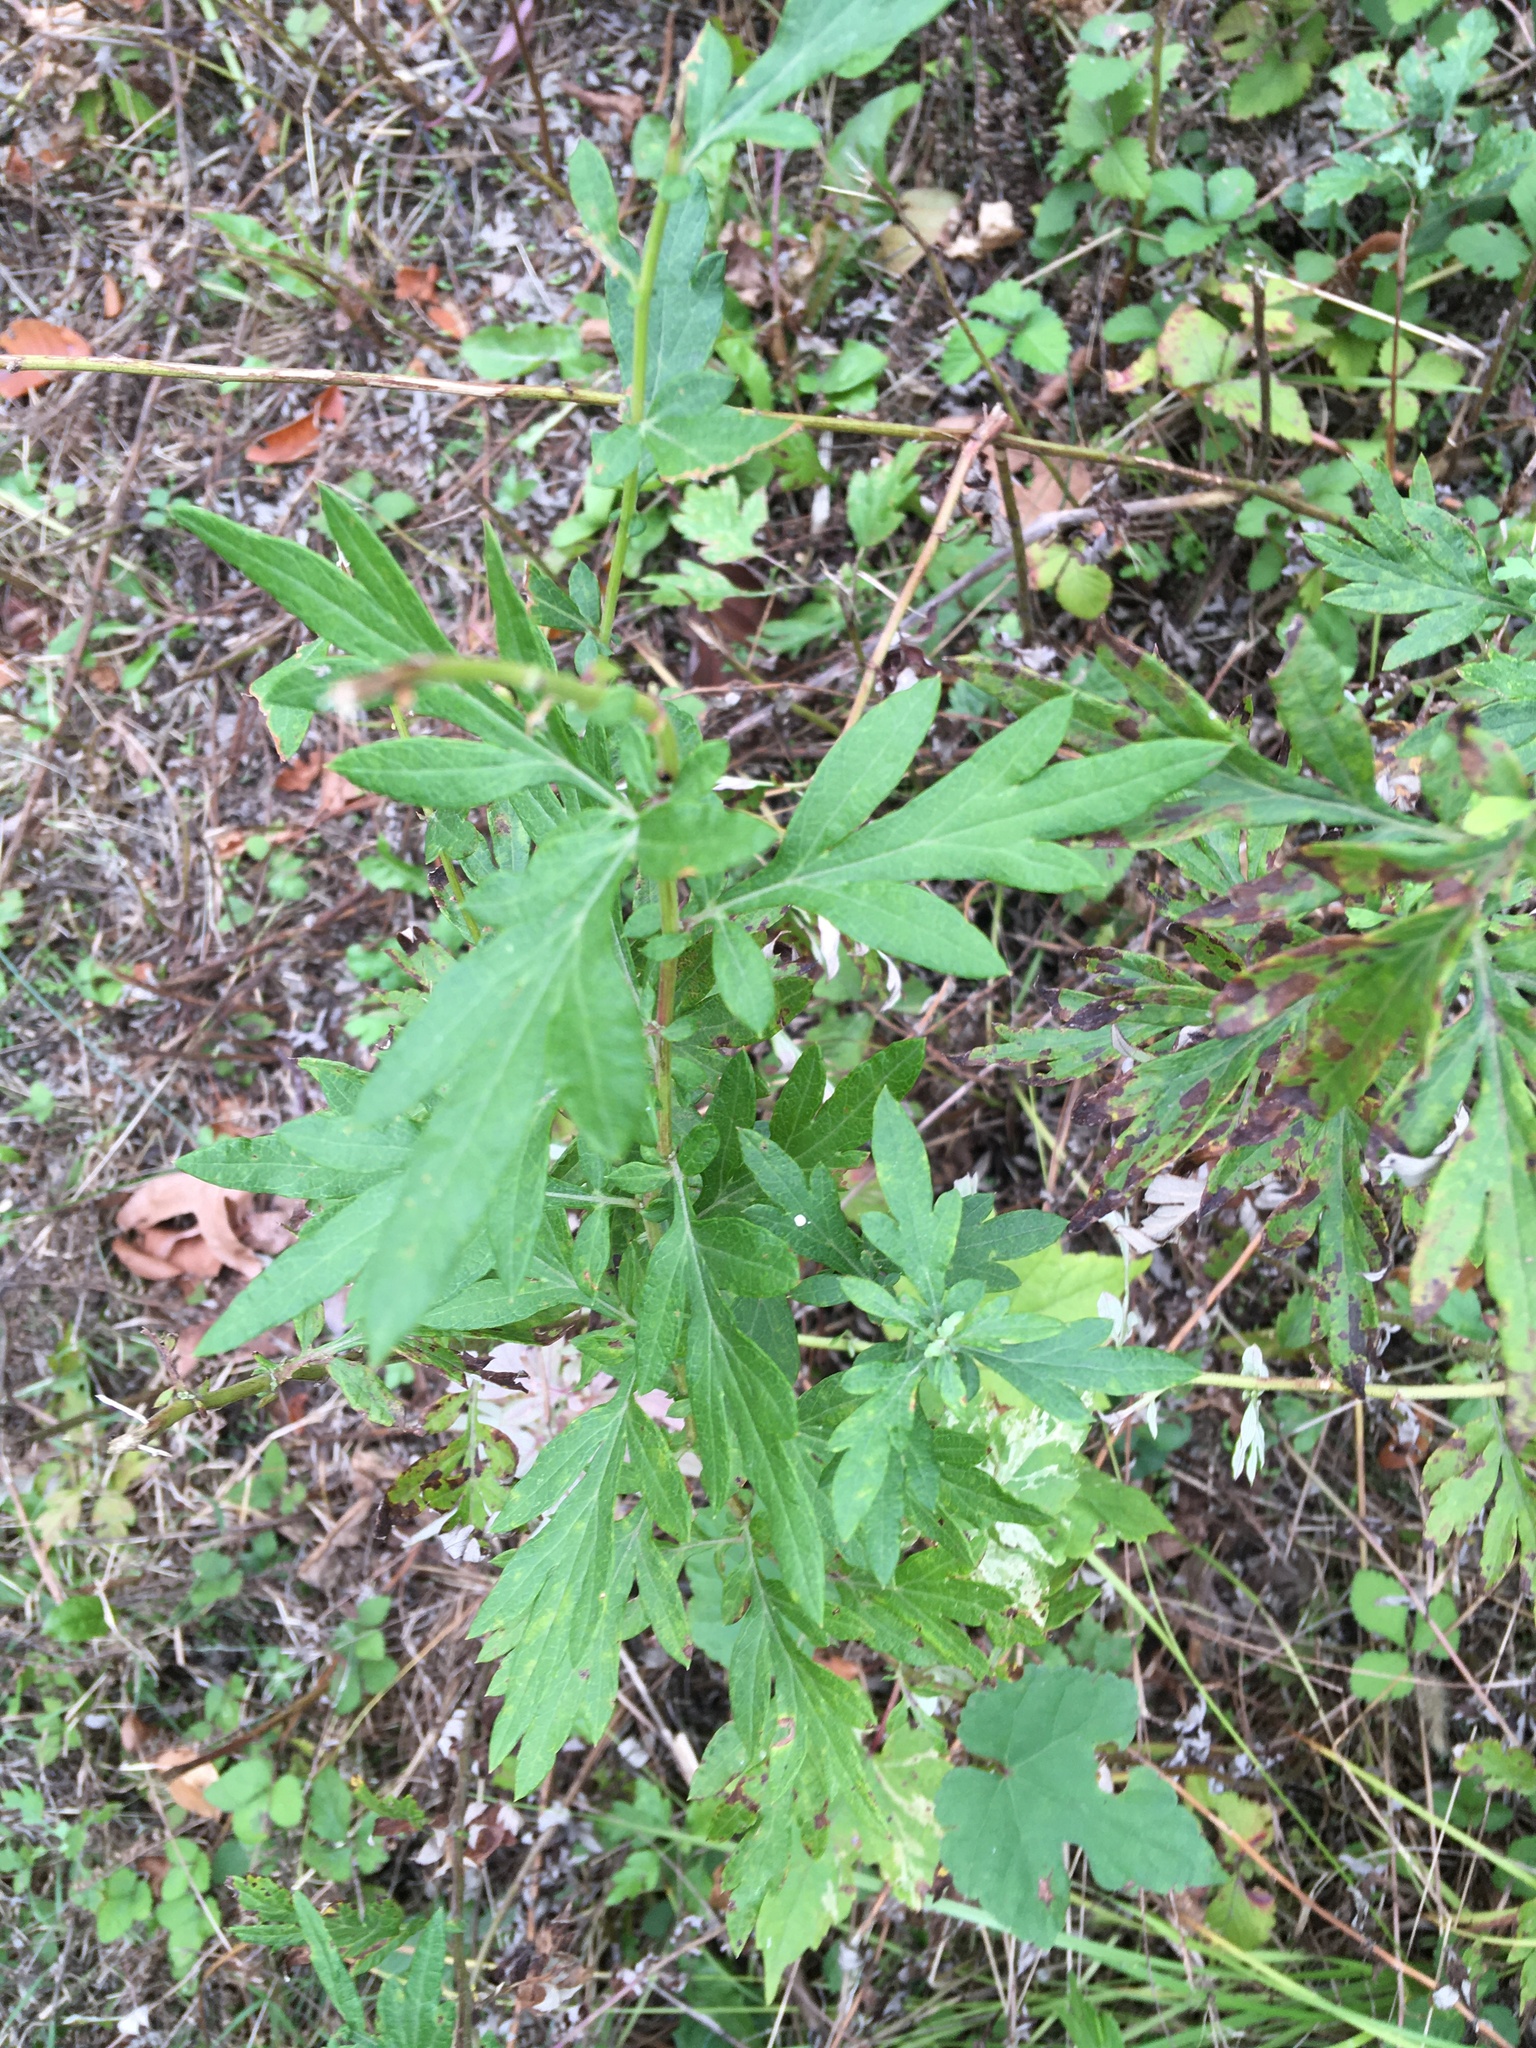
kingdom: Plantae
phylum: Tracheophyta
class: Magnoliopsida
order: Asterales
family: Asteraceae
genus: Artemisia
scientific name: Artemisia vulgaris
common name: Mugwort
